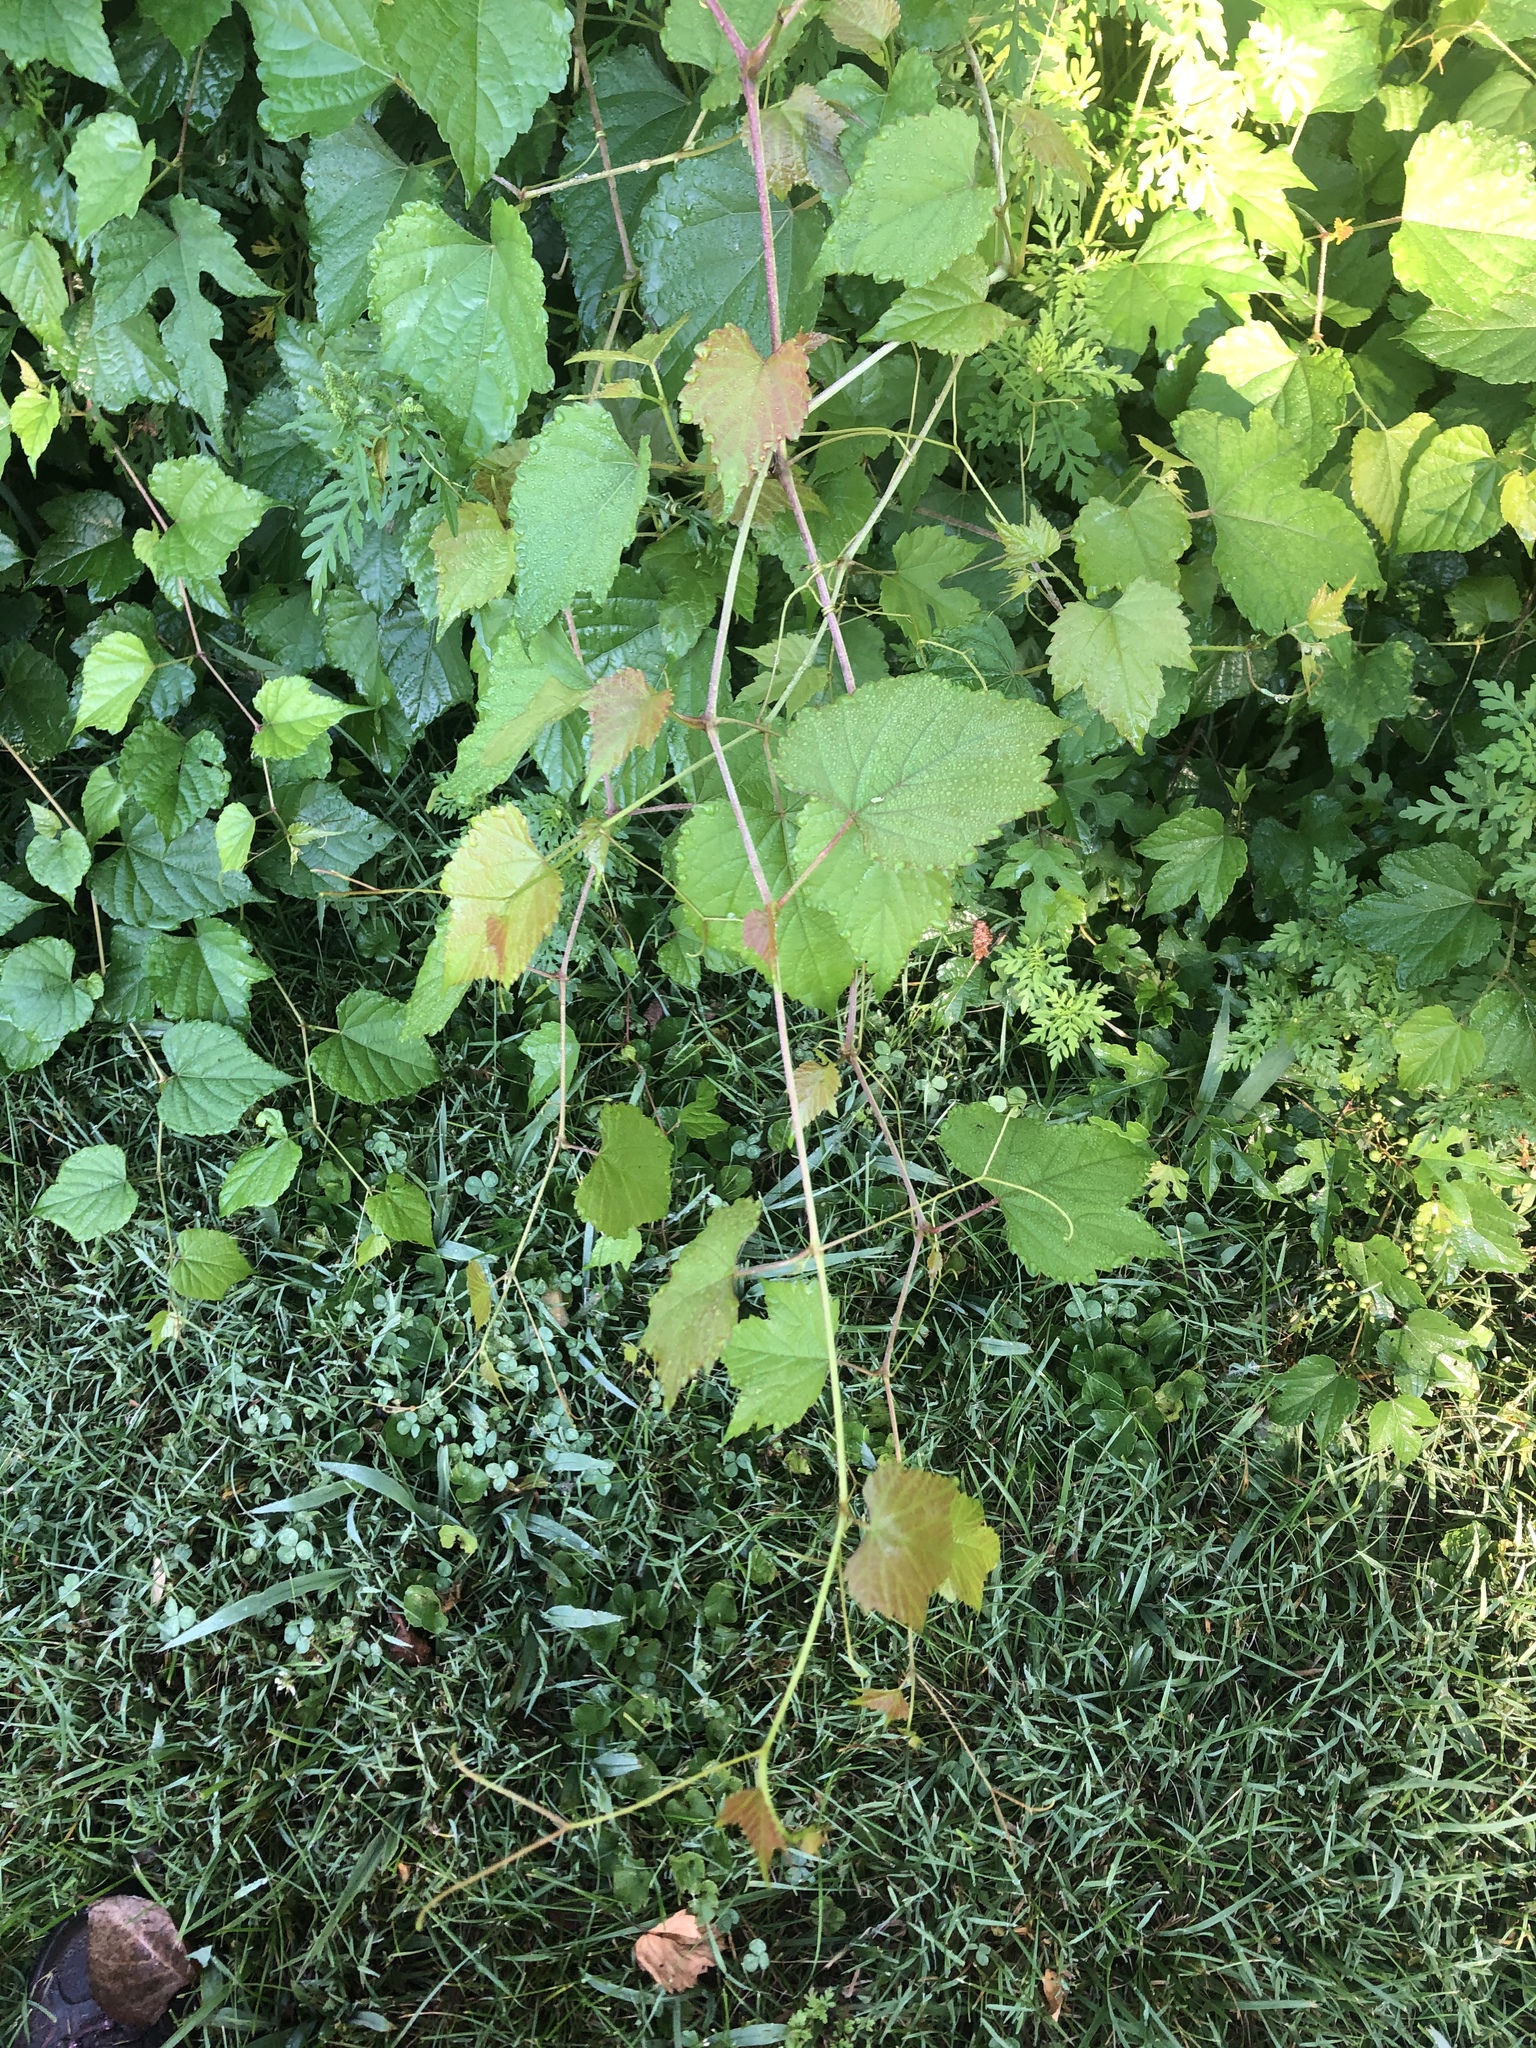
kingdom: Plantae
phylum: Tracheophyta
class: Magnoliopsida
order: Vitales
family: Vitaceae
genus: Ampelopsis
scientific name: Ampelopsis glandulosa
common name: Amur peppervine
